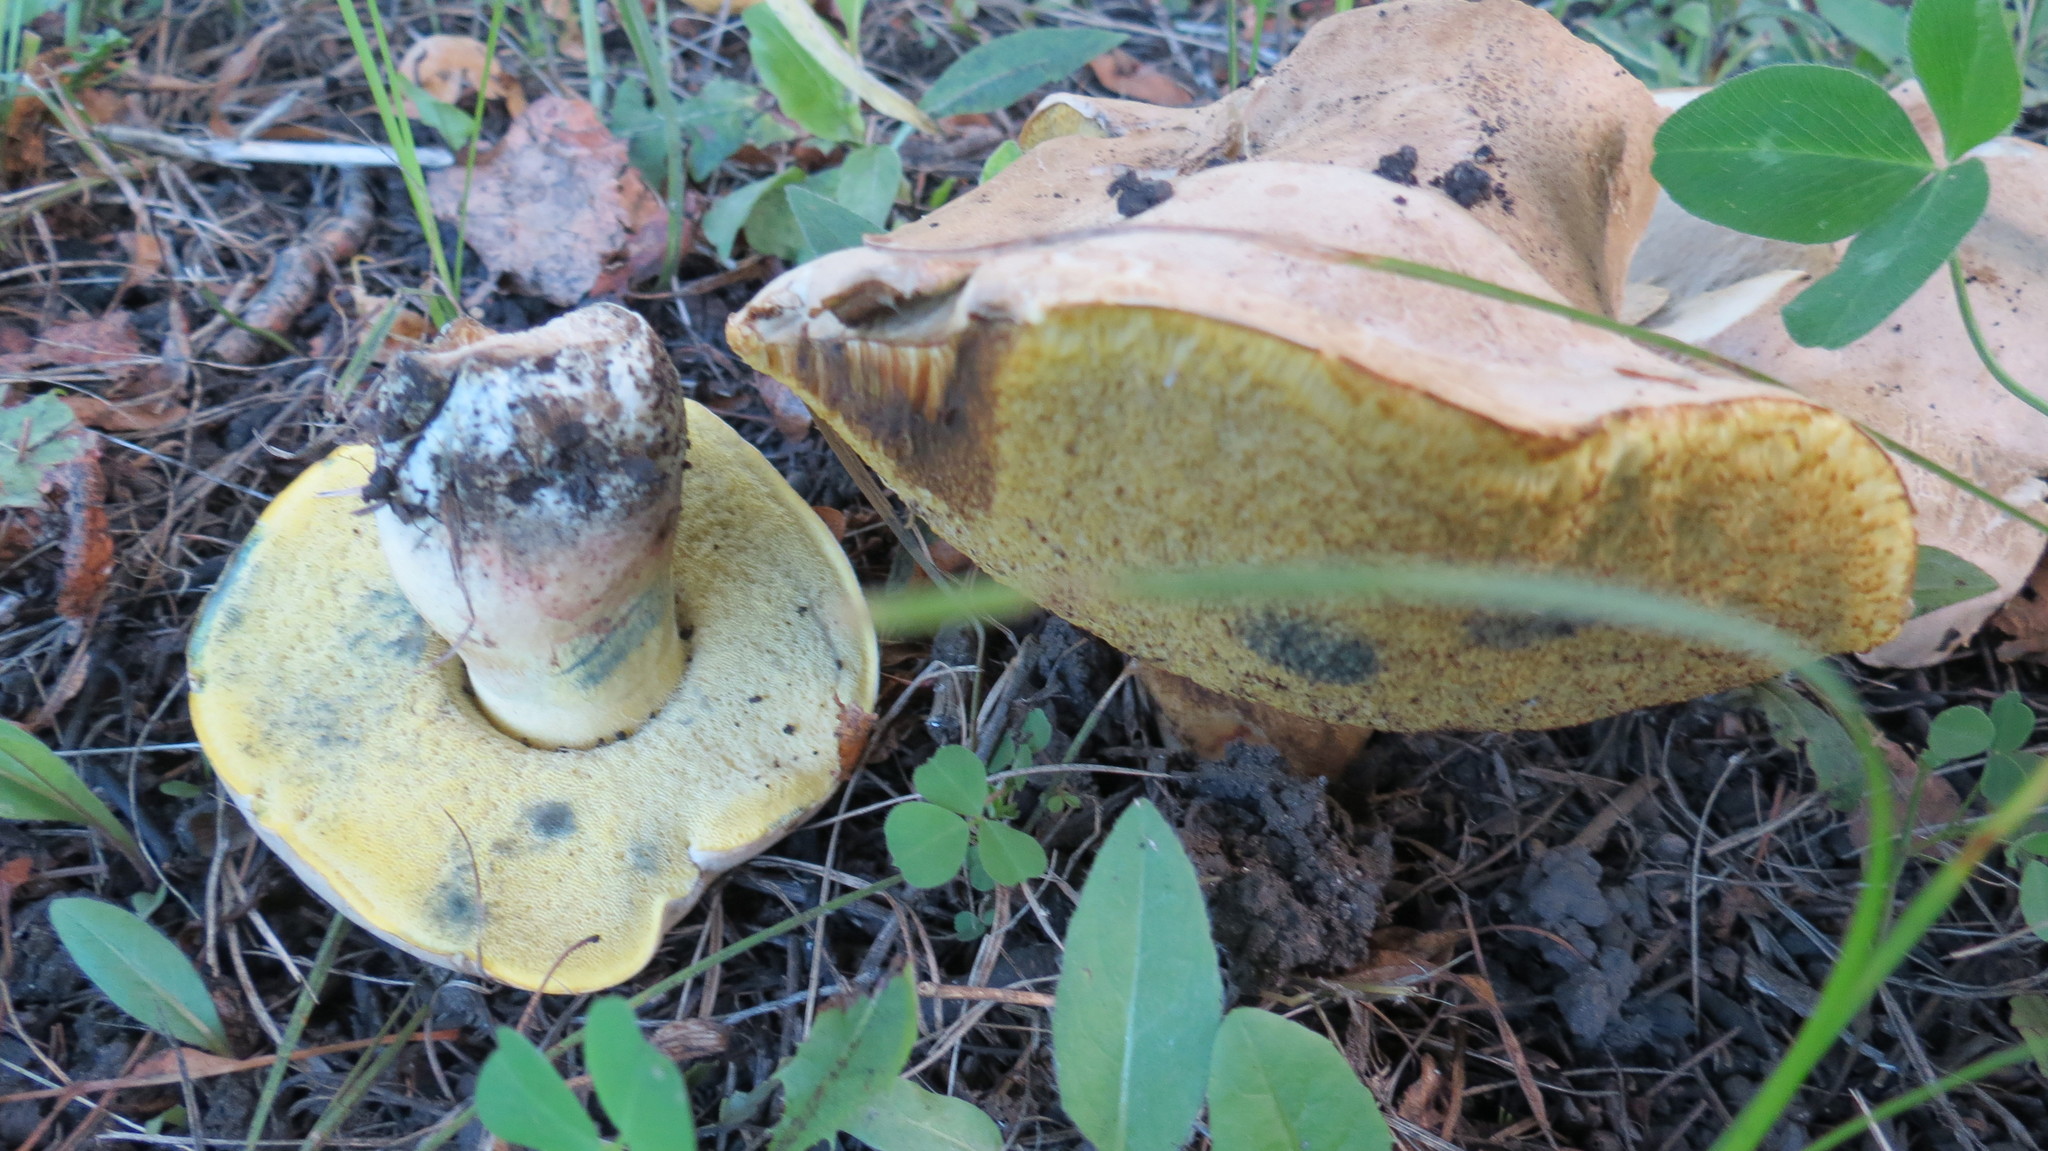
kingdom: Fungi
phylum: Basidiomycota
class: Agaricomycetes
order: Boletales
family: Boletaceae
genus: Caloboletus
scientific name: Caloboletus radicans
